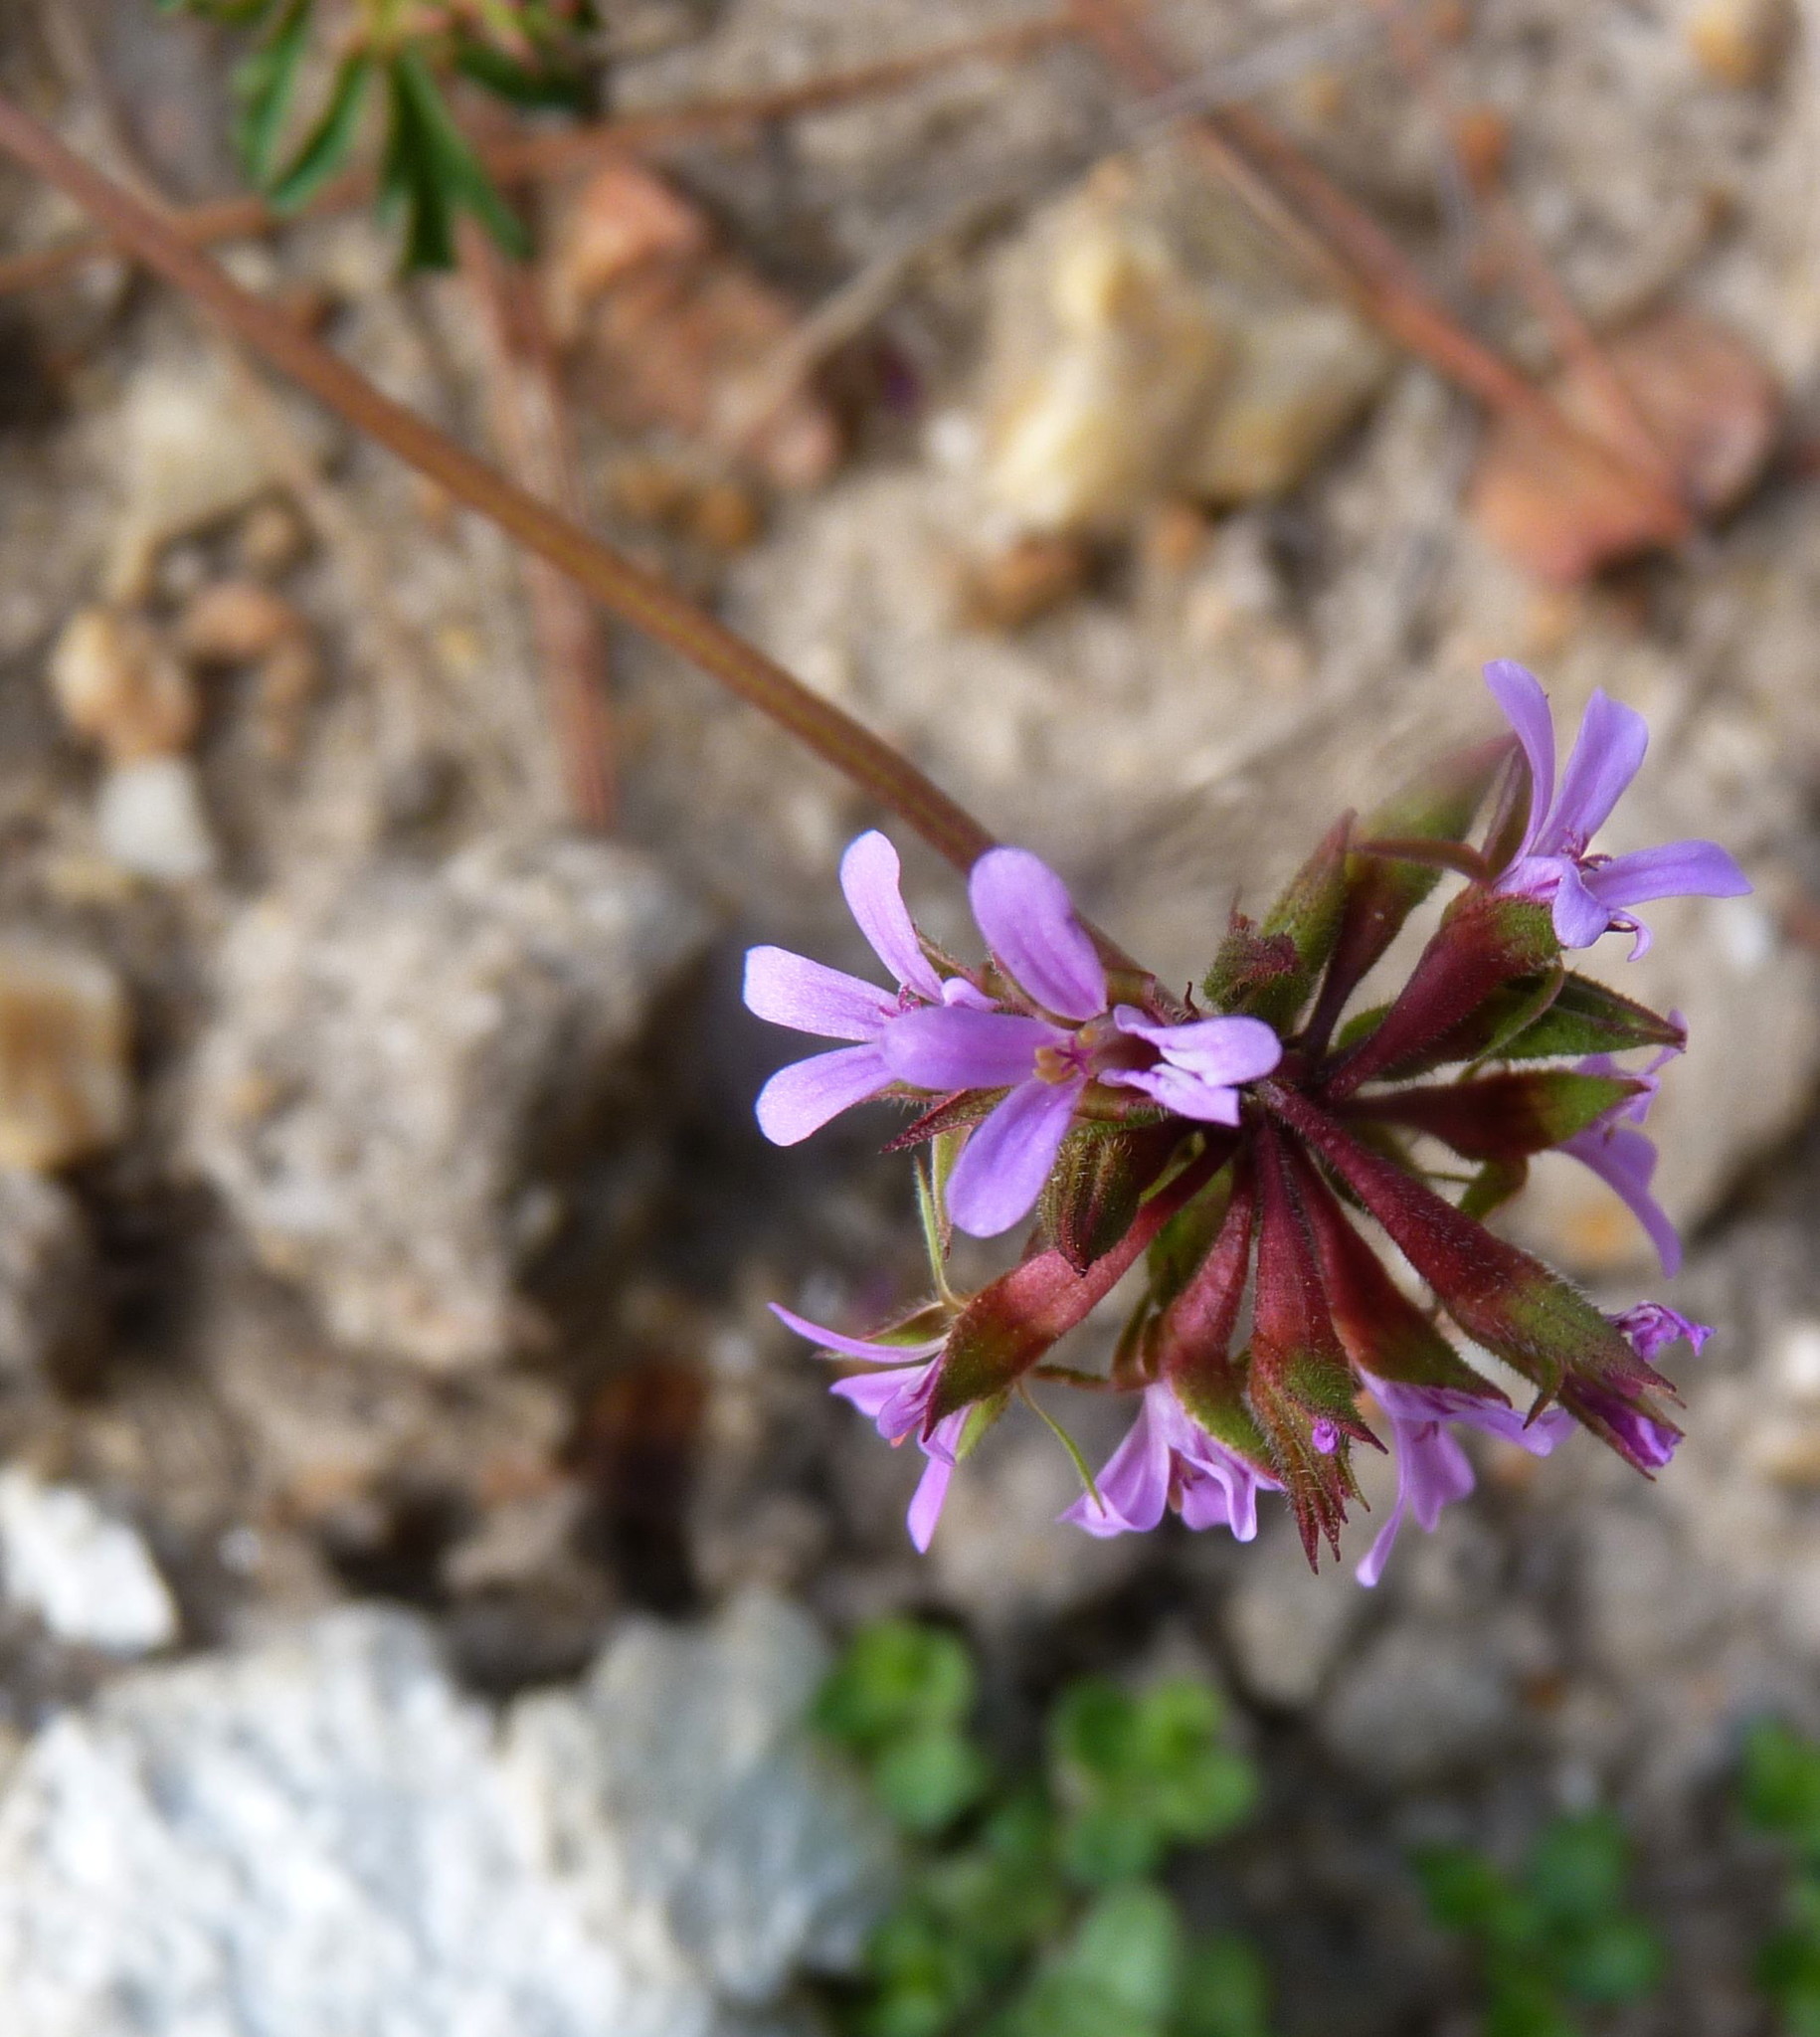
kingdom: Plantae
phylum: Tracheophyta
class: Magnoliopsida
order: Geraniales
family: Geraniaceae
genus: Pelargonium
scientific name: Pelargonium grossularioides
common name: Gooseberry geranium
